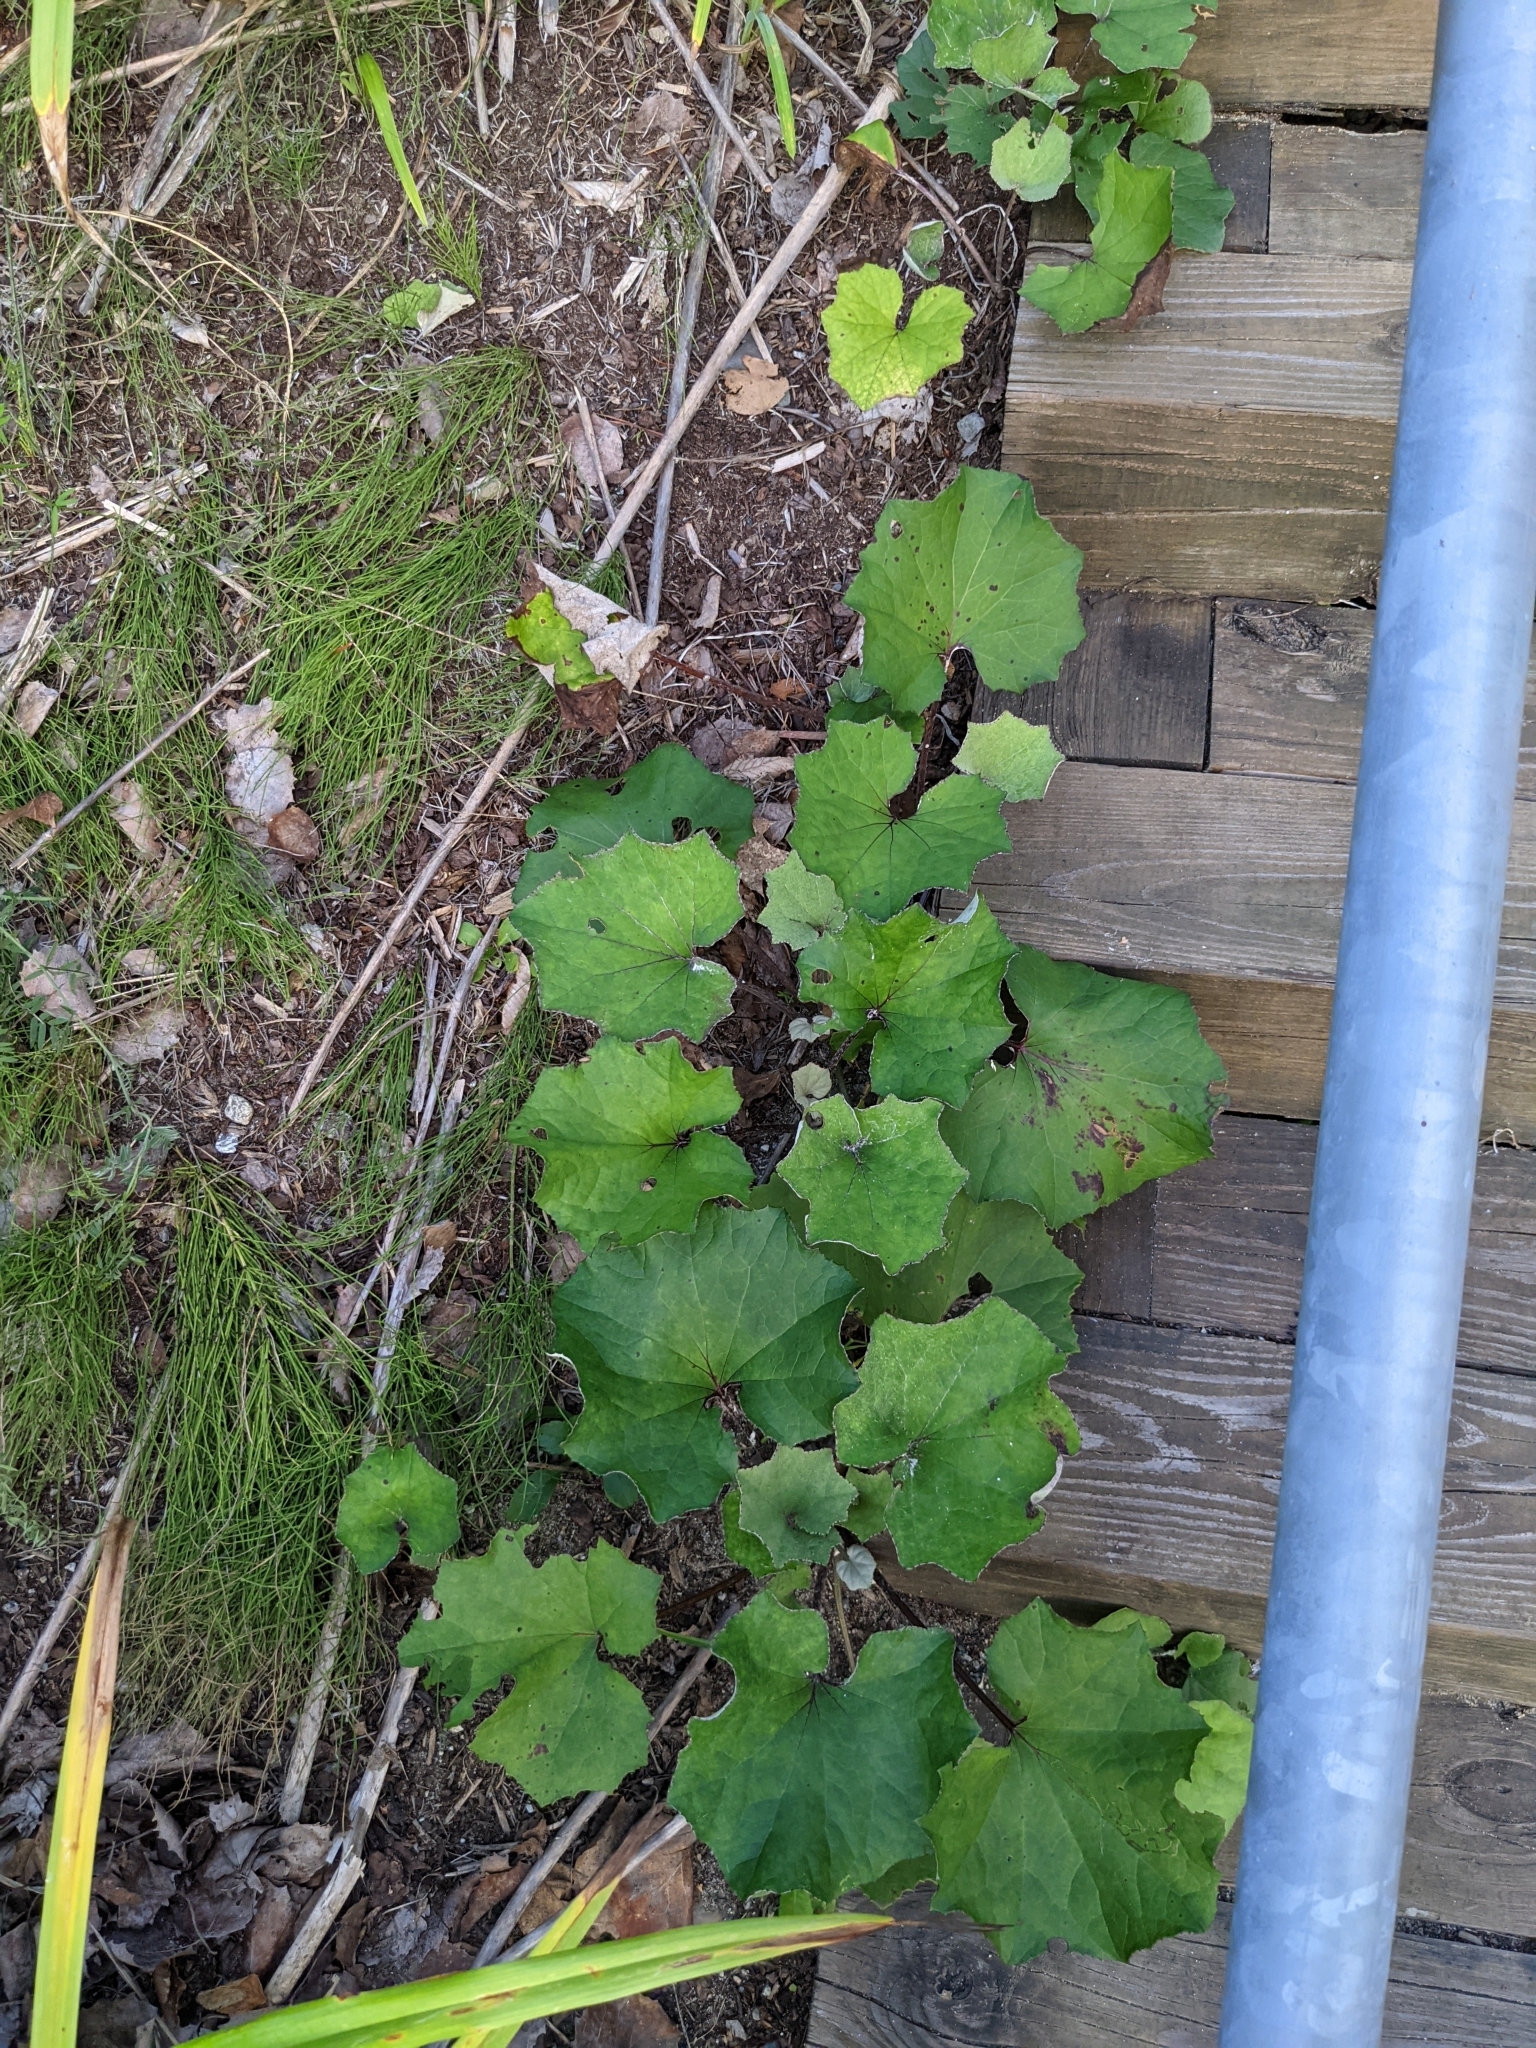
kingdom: Plantae
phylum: Tracheophyta
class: Magnoliopsida
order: Asterales
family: Asteraceae
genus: Tussilago
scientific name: Tussilago farfara
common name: Coltsfoot
